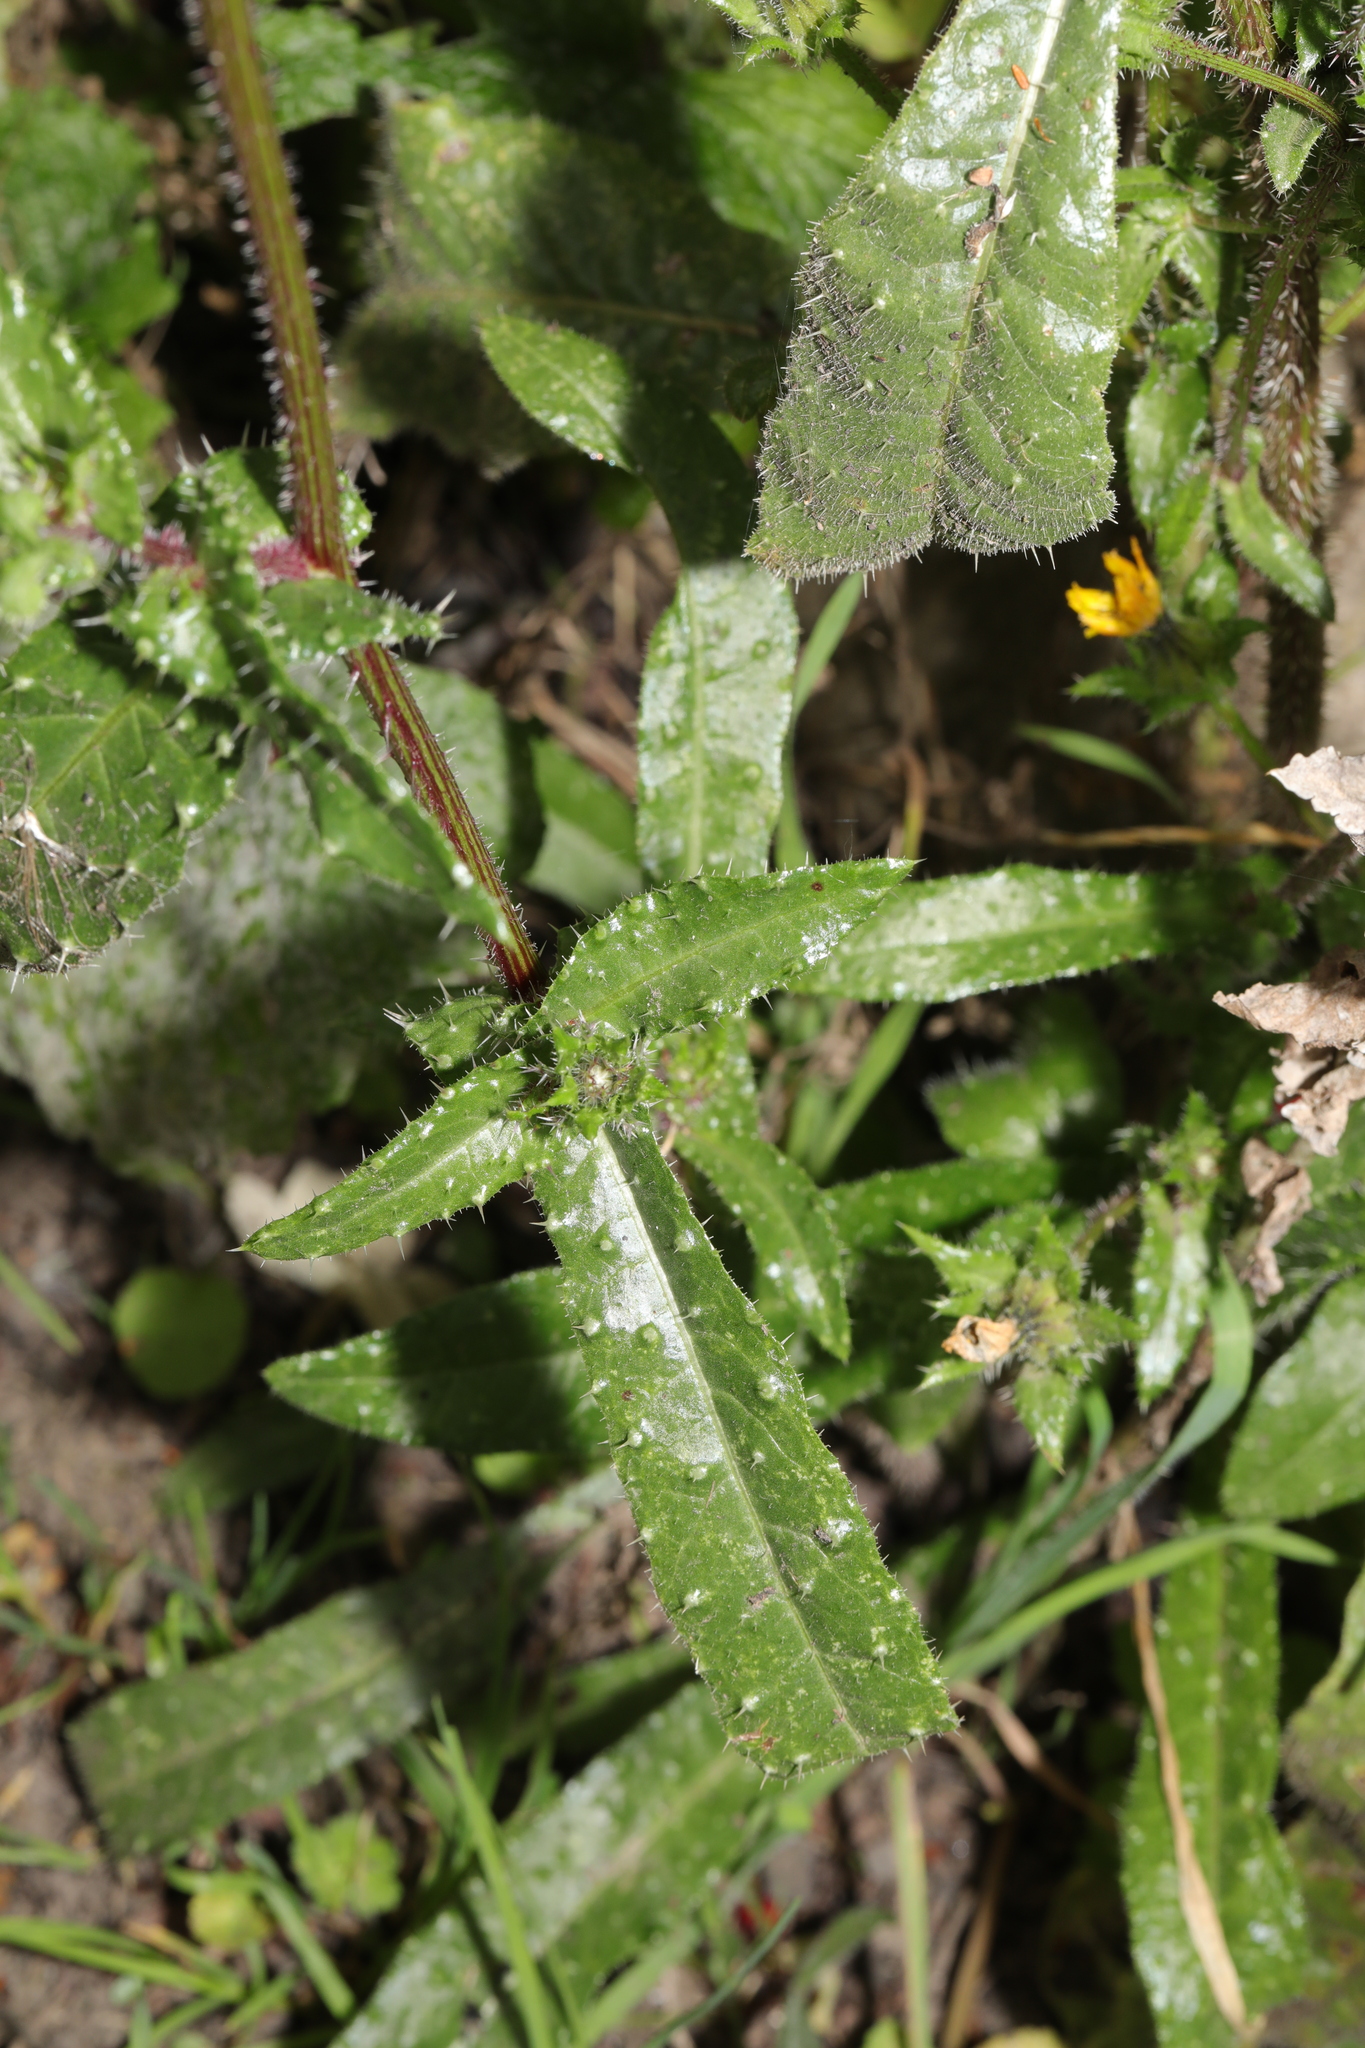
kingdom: Plantae
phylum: Tracheophyta
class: Magnoliopsida
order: Asterales
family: Asteraceae
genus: Helminthotheca
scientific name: Helminthotheca echioides
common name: Ox-tongue
